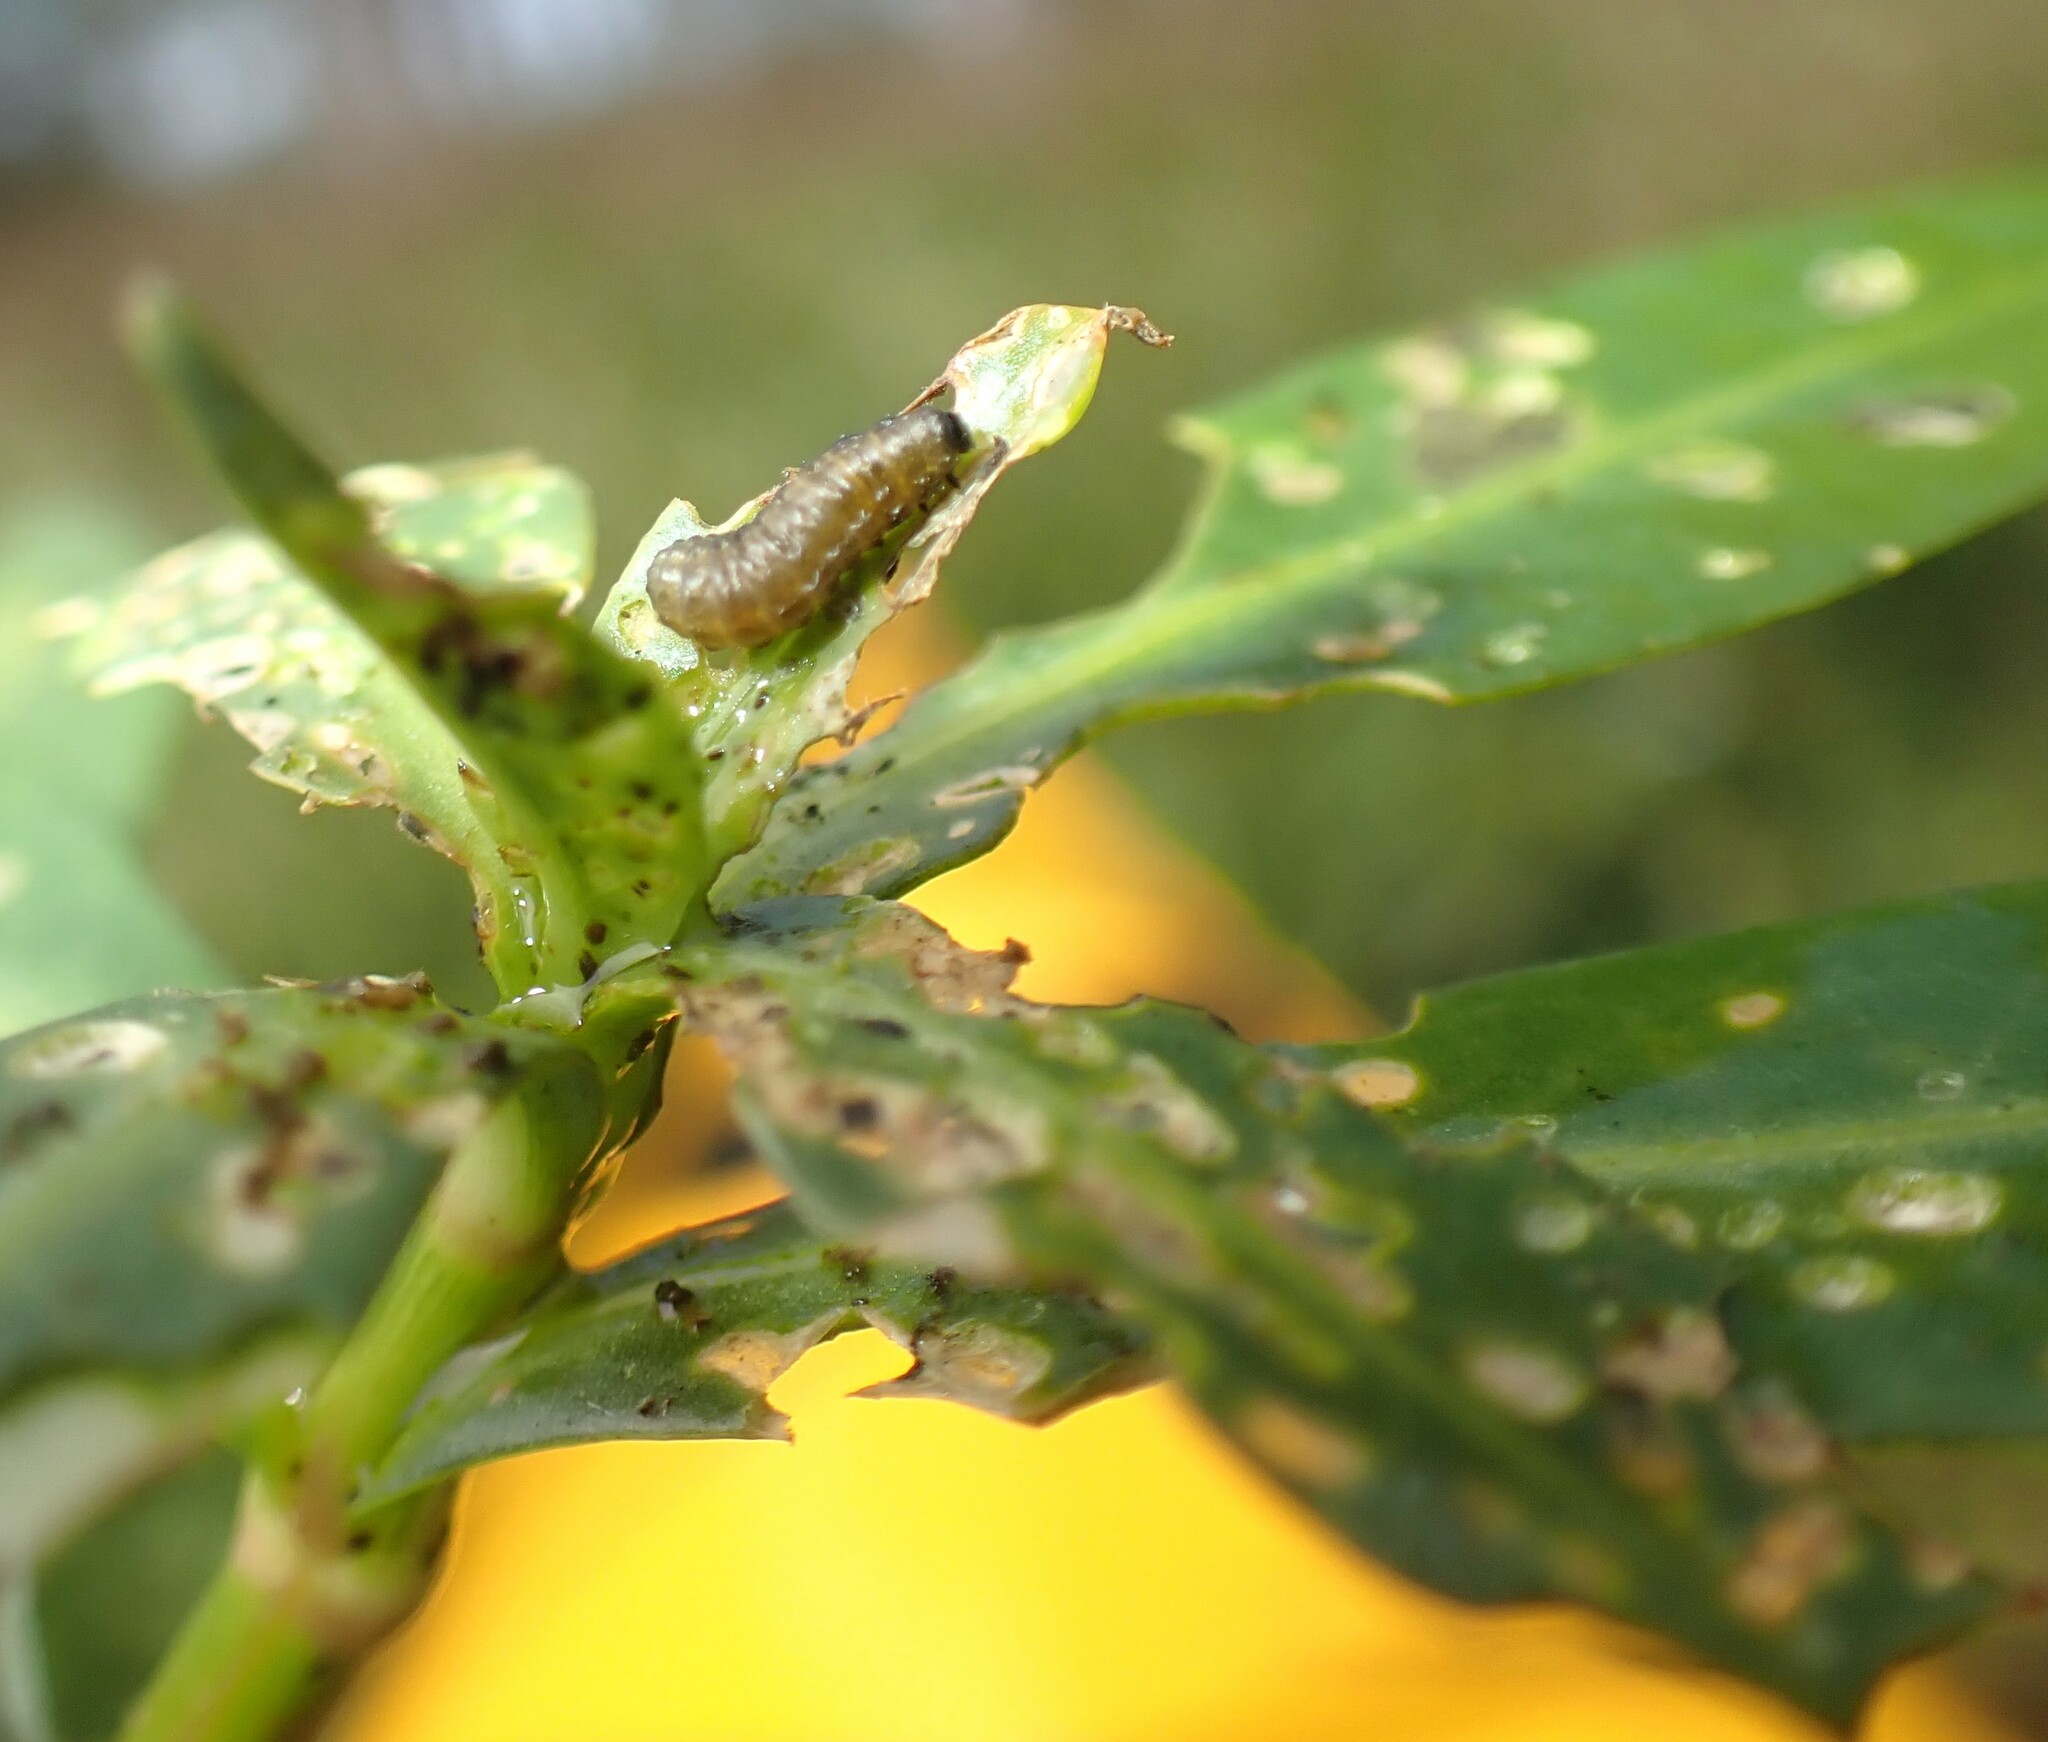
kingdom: Animalia
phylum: Arthropoda
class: Insecta
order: Coleoptera
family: Chrysomelidae
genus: Agasicles
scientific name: Agasicles hygrophila
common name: Alligatorweed flea beetle
